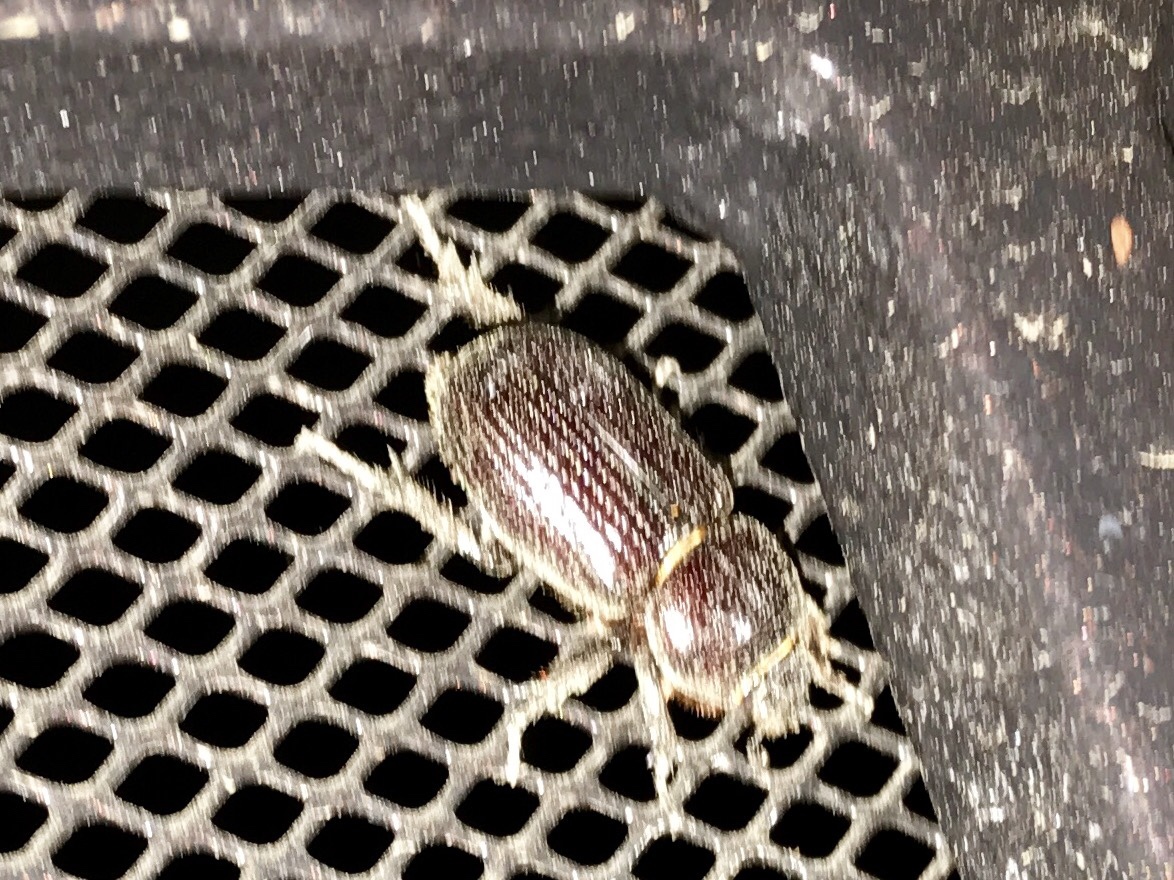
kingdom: Animalia
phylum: Arthropoda
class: Insecta
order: Coleoptera
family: Scarabaeidae
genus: Hemiphileurus
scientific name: Hemiphileurus illatus
